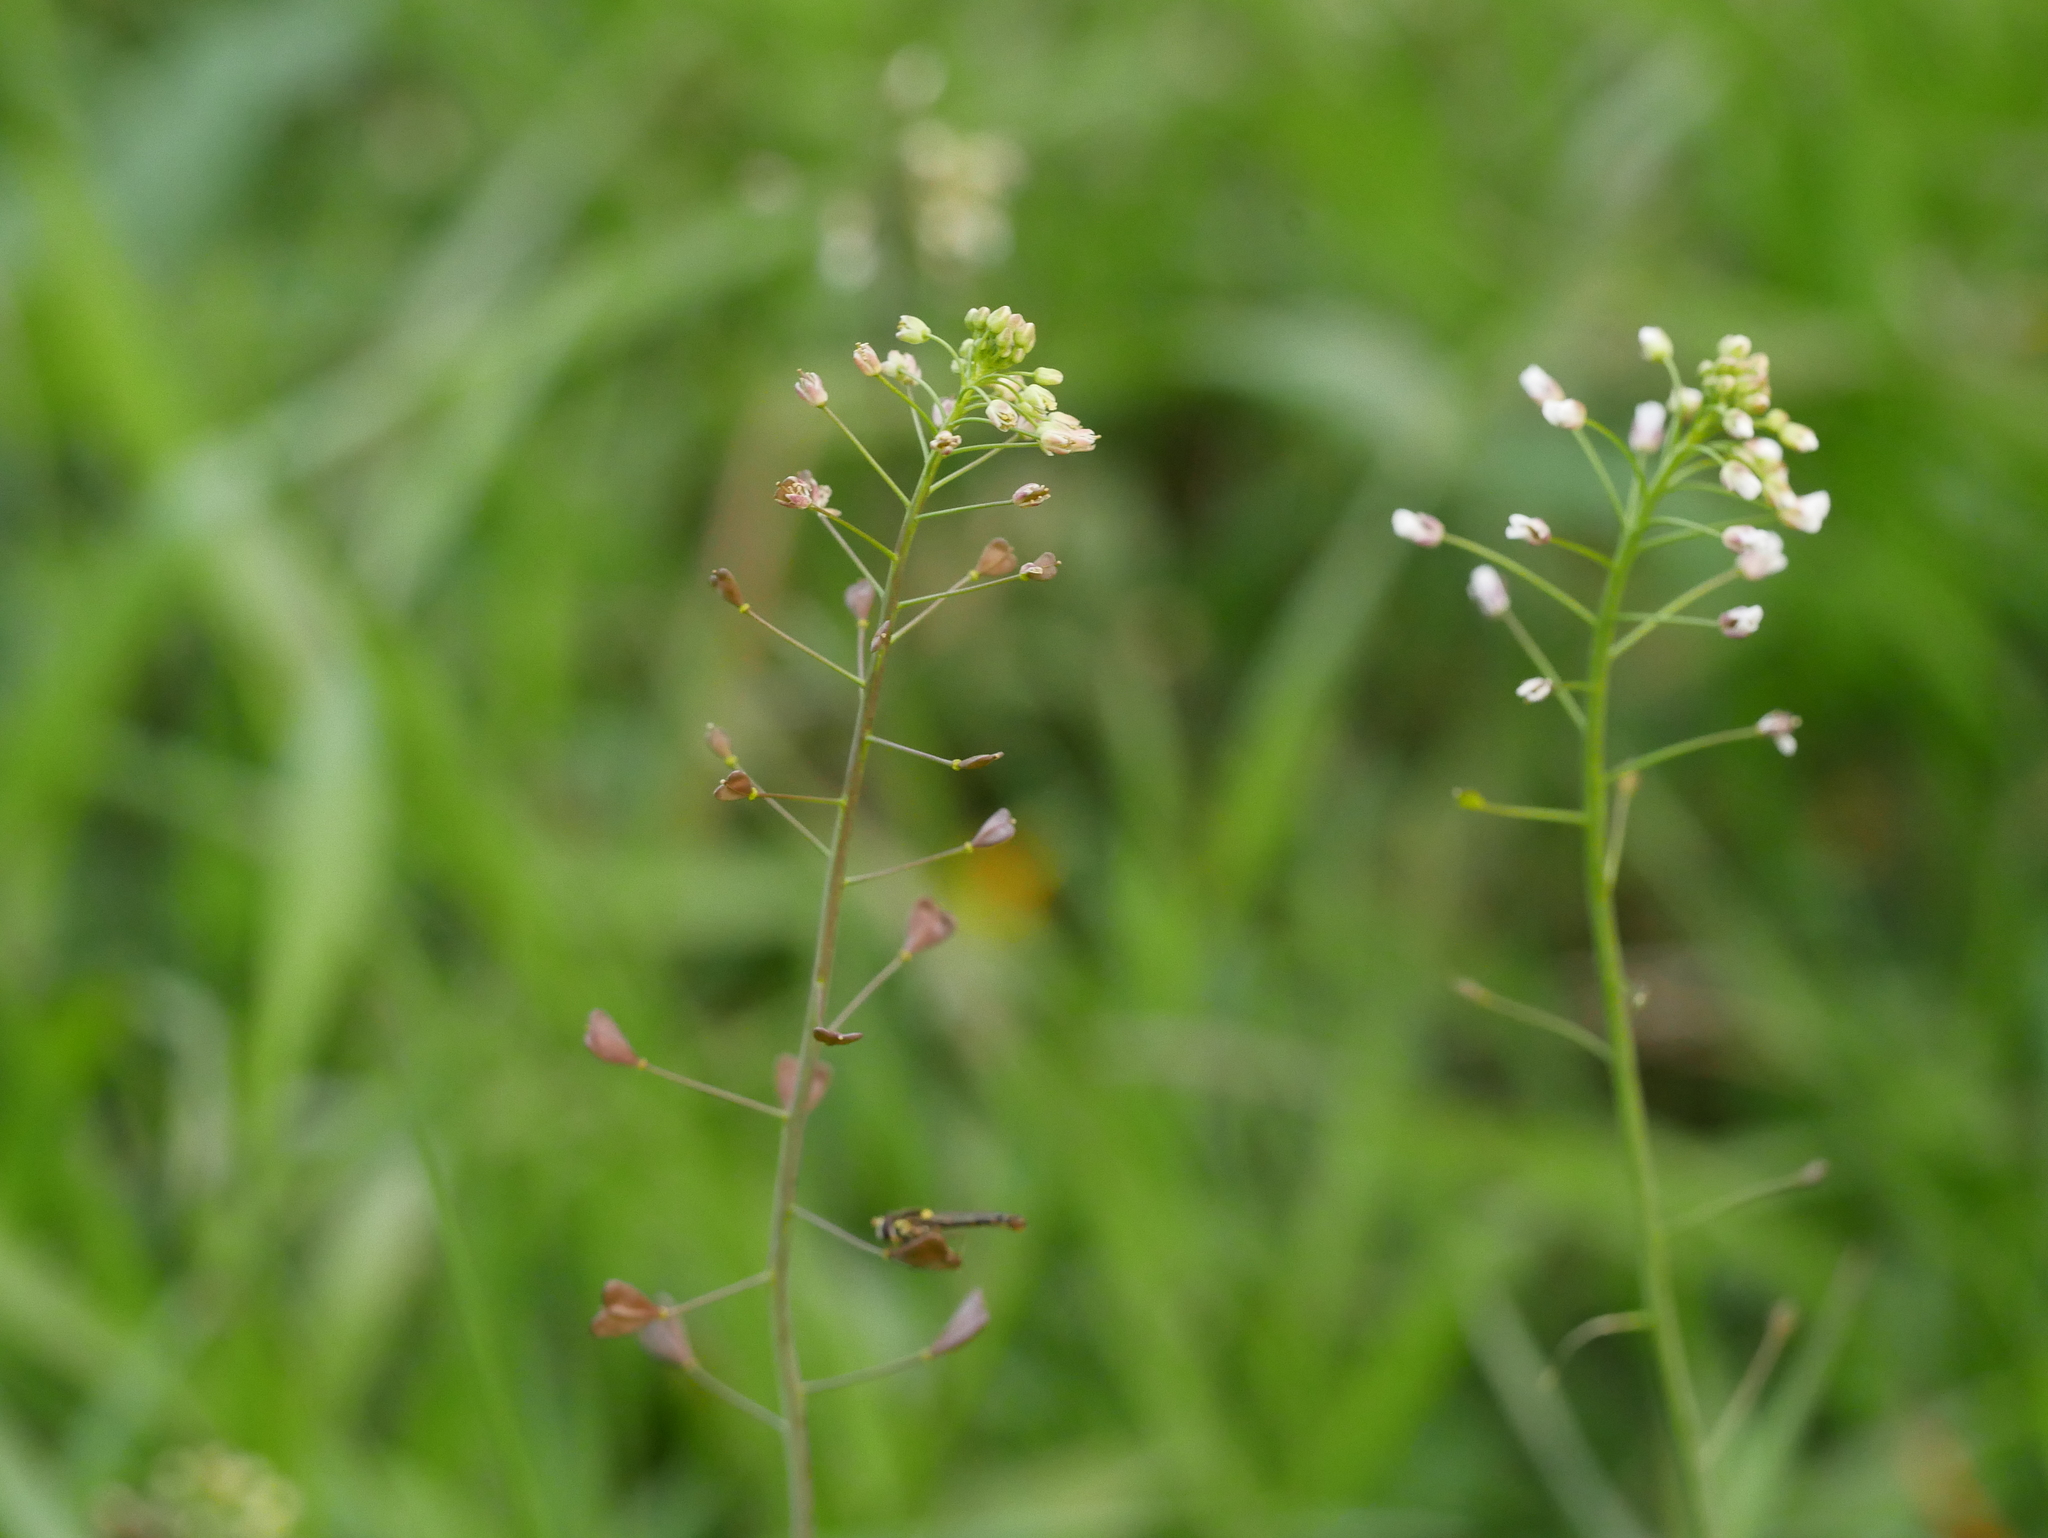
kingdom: Plantae
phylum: Tracheophyta
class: Magnoliopsida
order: Brassicales
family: Brassicaceae
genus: Capsella
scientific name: Capsella bursa-pastoris
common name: Shepherd's purse
